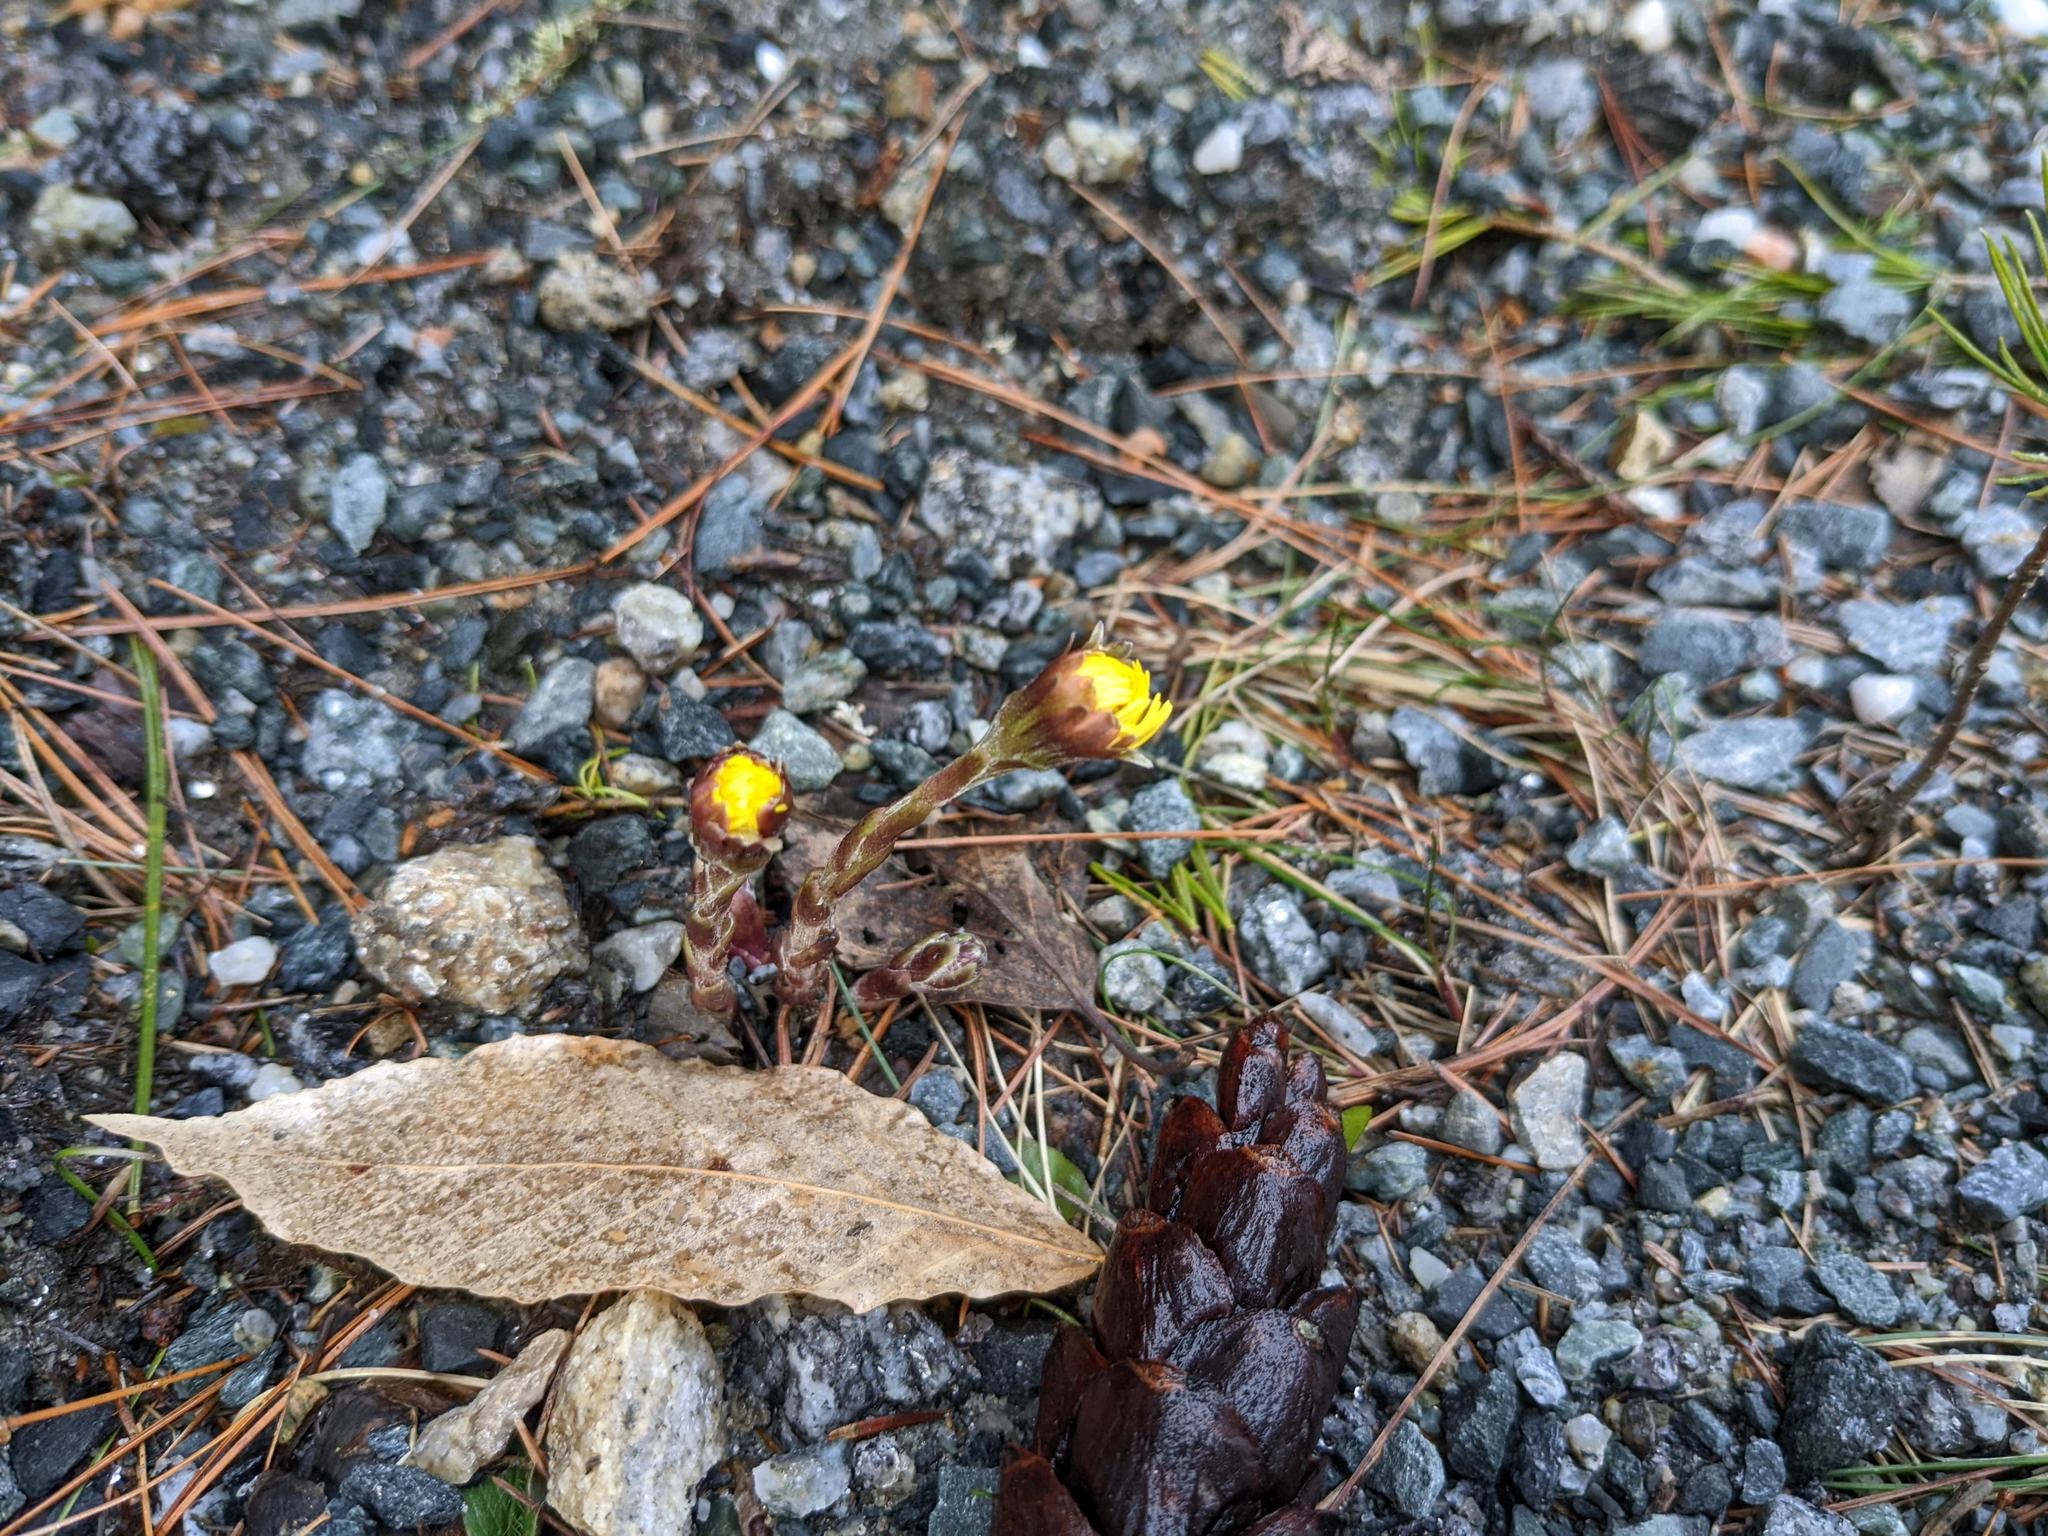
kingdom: Plantae
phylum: Tracheophyta
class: Magnoliopsida
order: Asterales
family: Asteraceae
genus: Tussilago
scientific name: Tussilago farfara
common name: Coltsfoot
